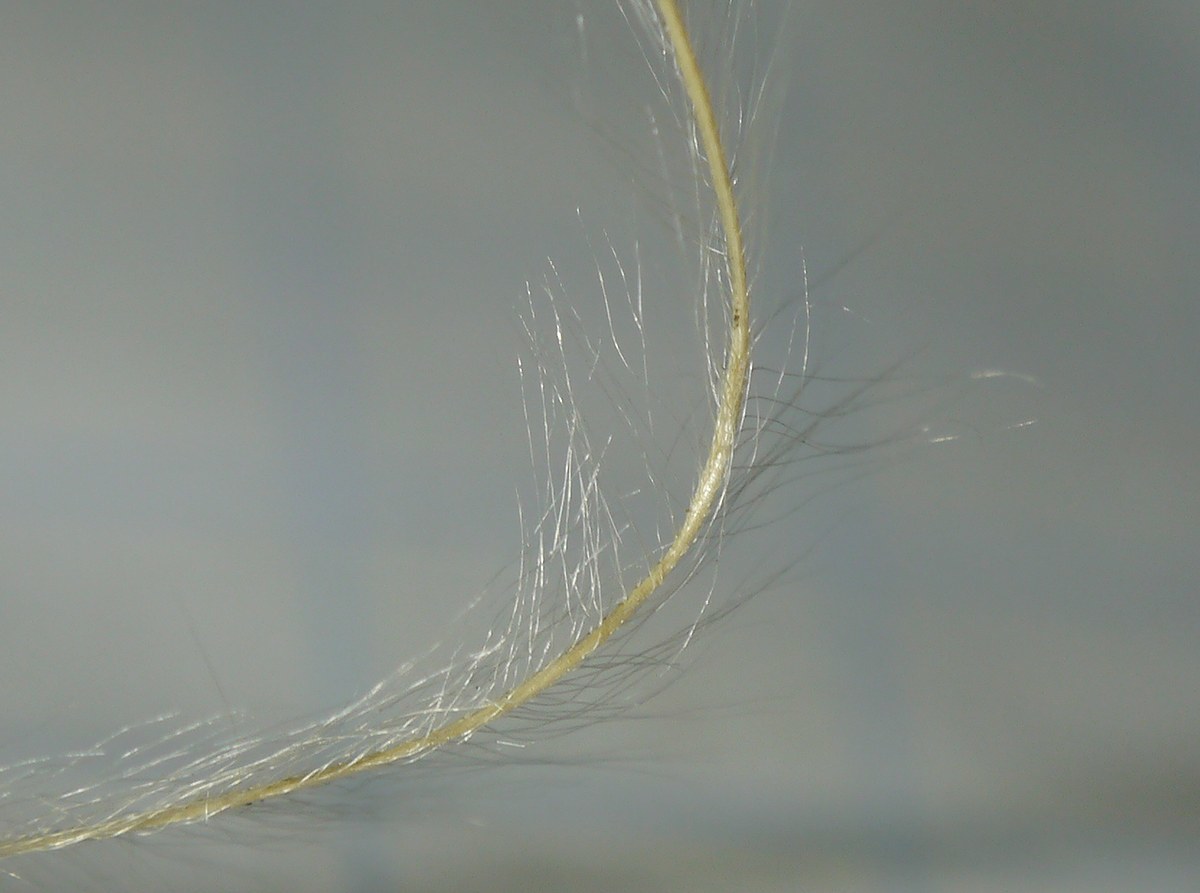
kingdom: Plantae
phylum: Tracheophyta
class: Liliopsida
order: Poales
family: Poaceae
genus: Stipa
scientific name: Stipa lessingiana
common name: Needle grass
